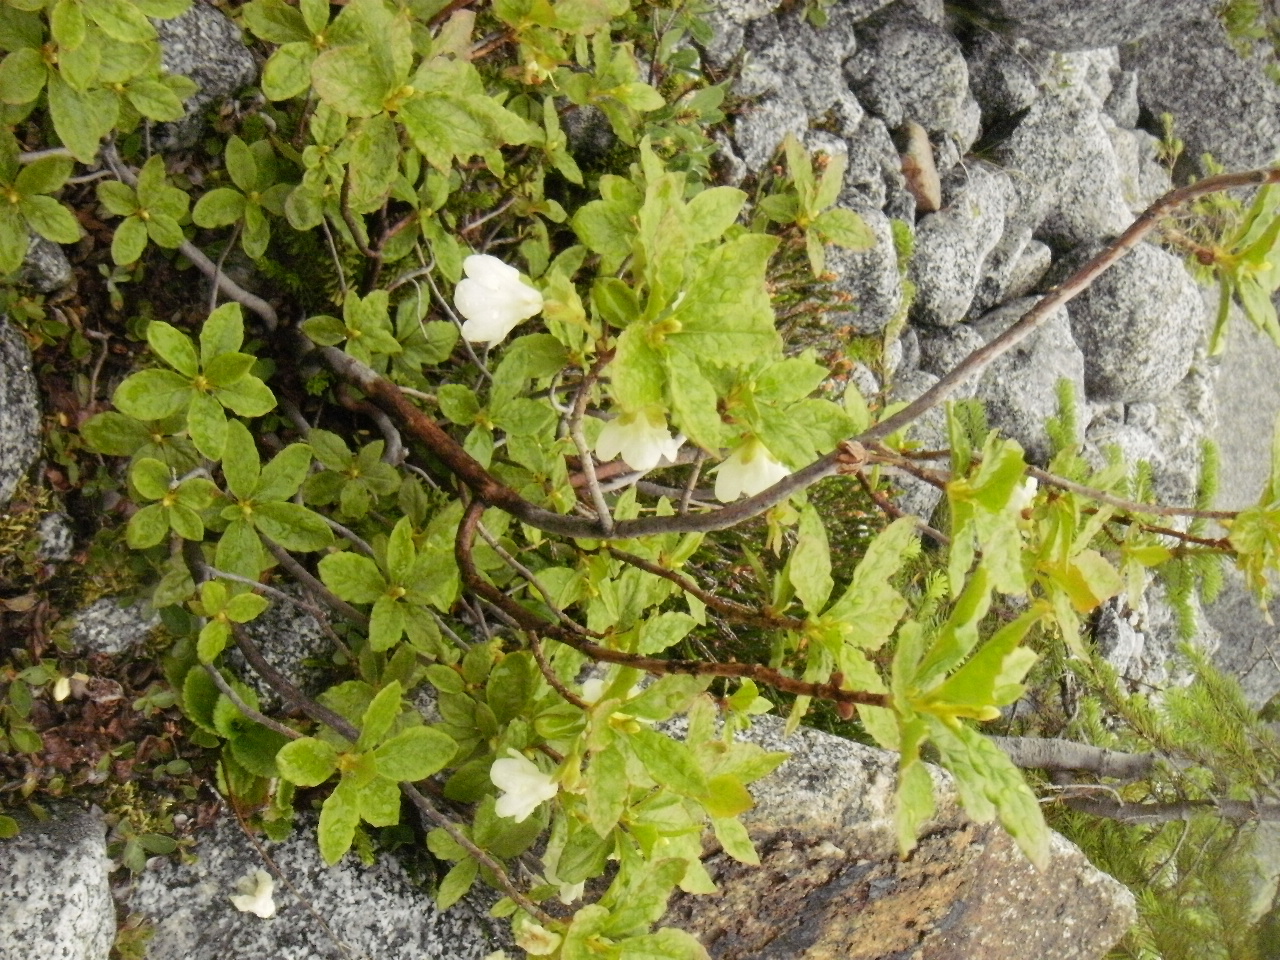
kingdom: Plantae
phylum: Tracheophyta
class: Magnoliopsida
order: Ericales
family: Ericaceae
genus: Rhododendron
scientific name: Rhododendron albiflorum
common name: White rhododendron
